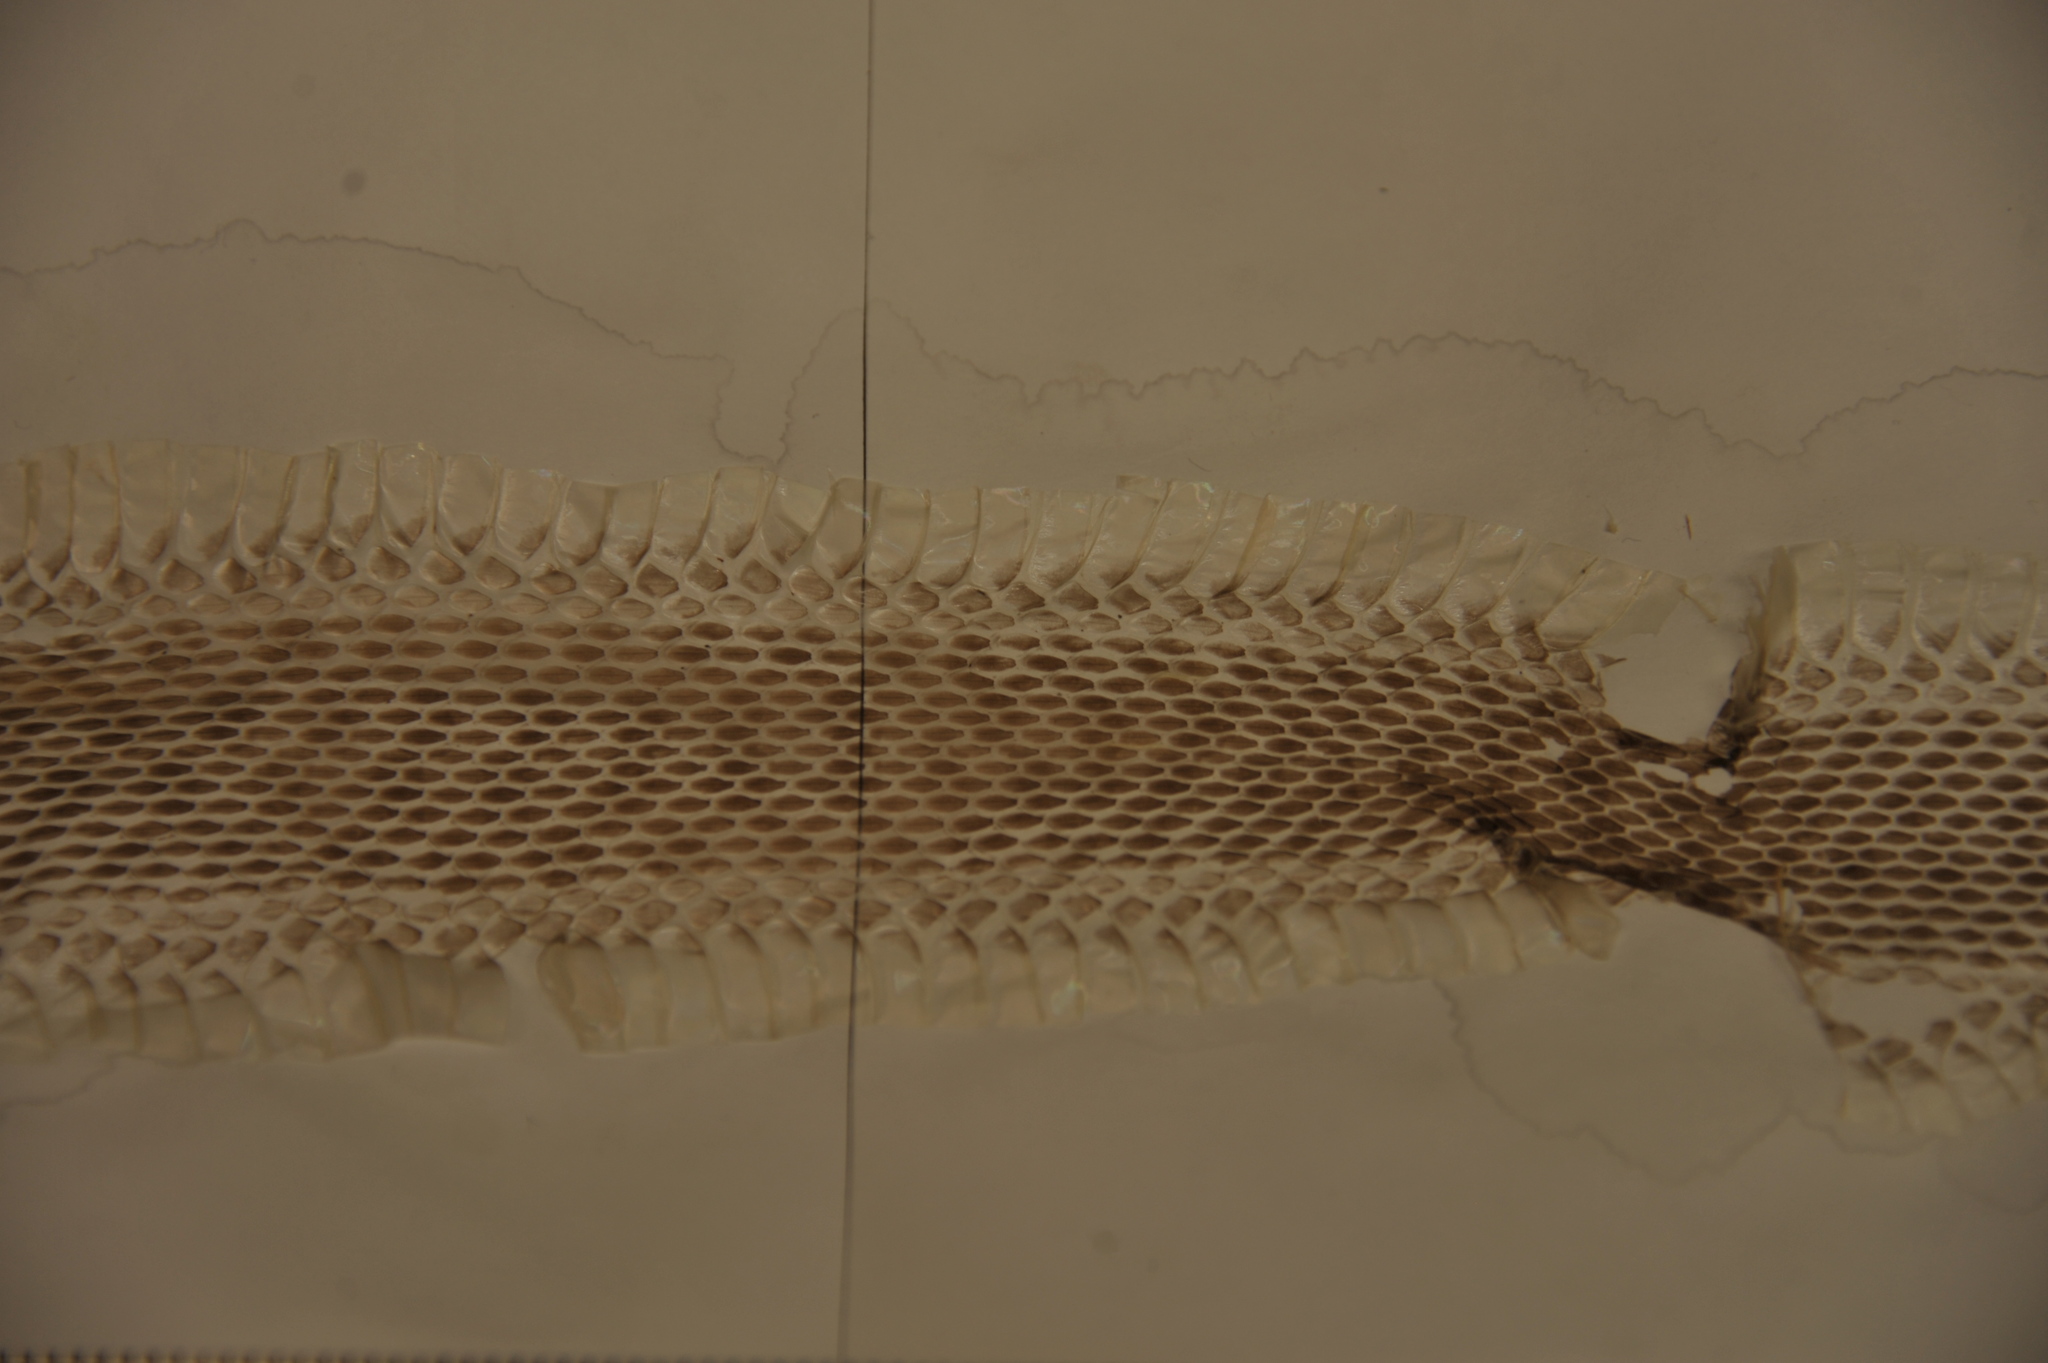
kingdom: Animalia
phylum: Chordata
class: Squamata
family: Colubridae
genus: Thamnophis
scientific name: Thamnophis sirtalis
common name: Common garter snake
